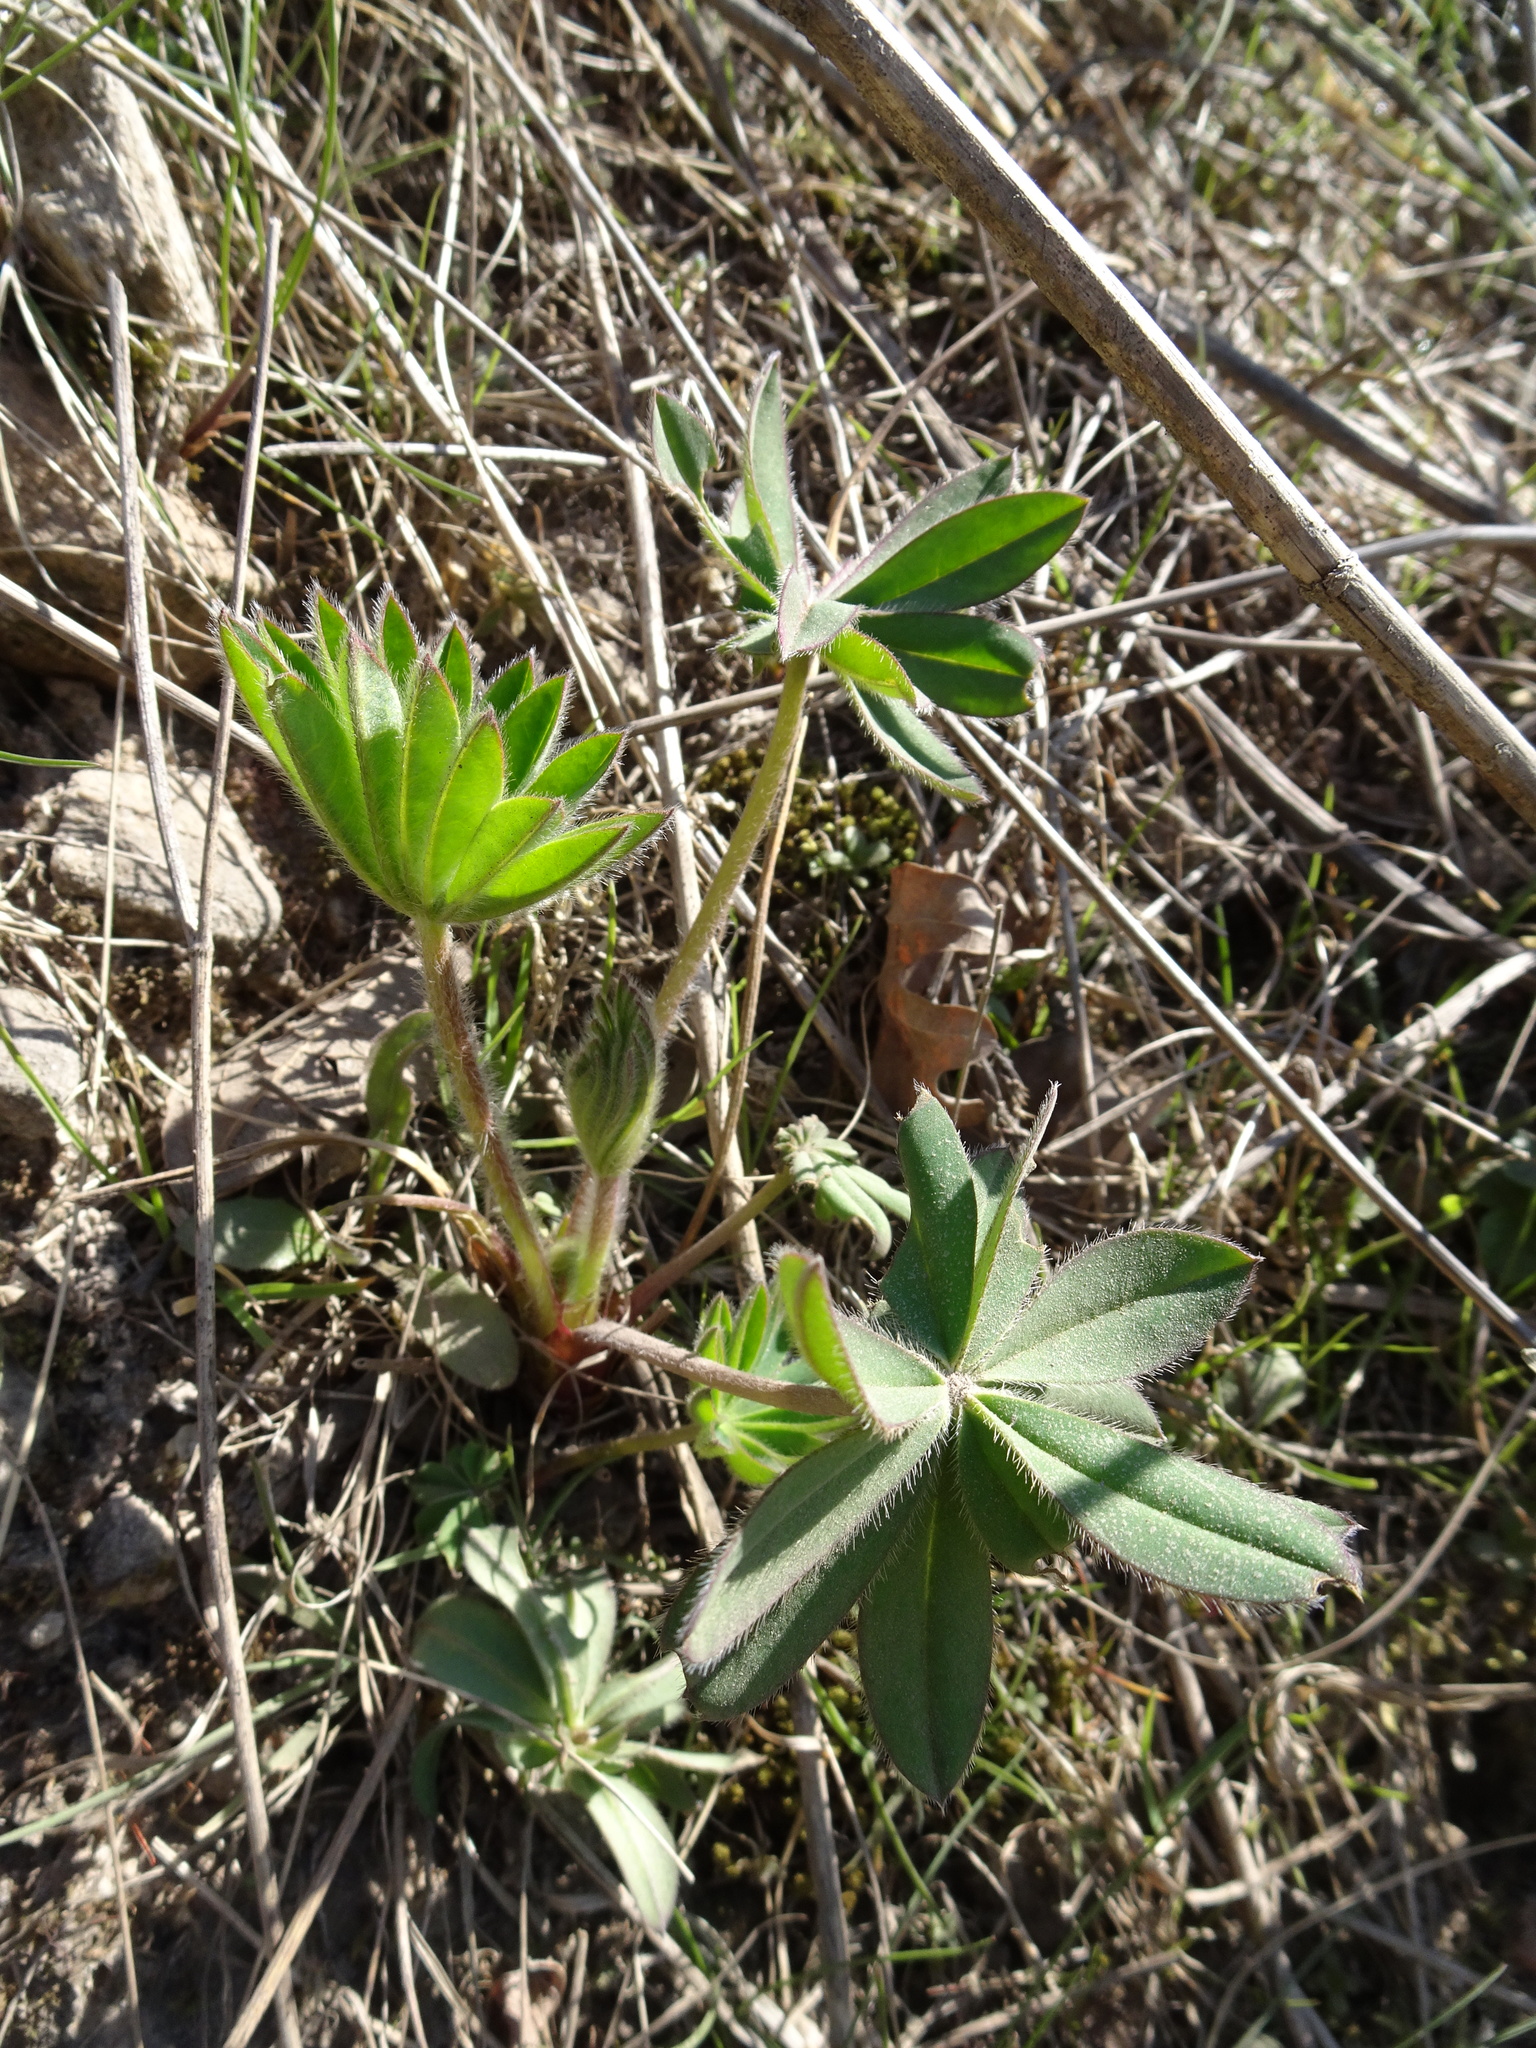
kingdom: Plantae
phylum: Tracheophyta
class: Magnoliopsida
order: Fabales
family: Fabaceae
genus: Lupinus
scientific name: Lupinus polyphyllus
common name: Garden lupin
